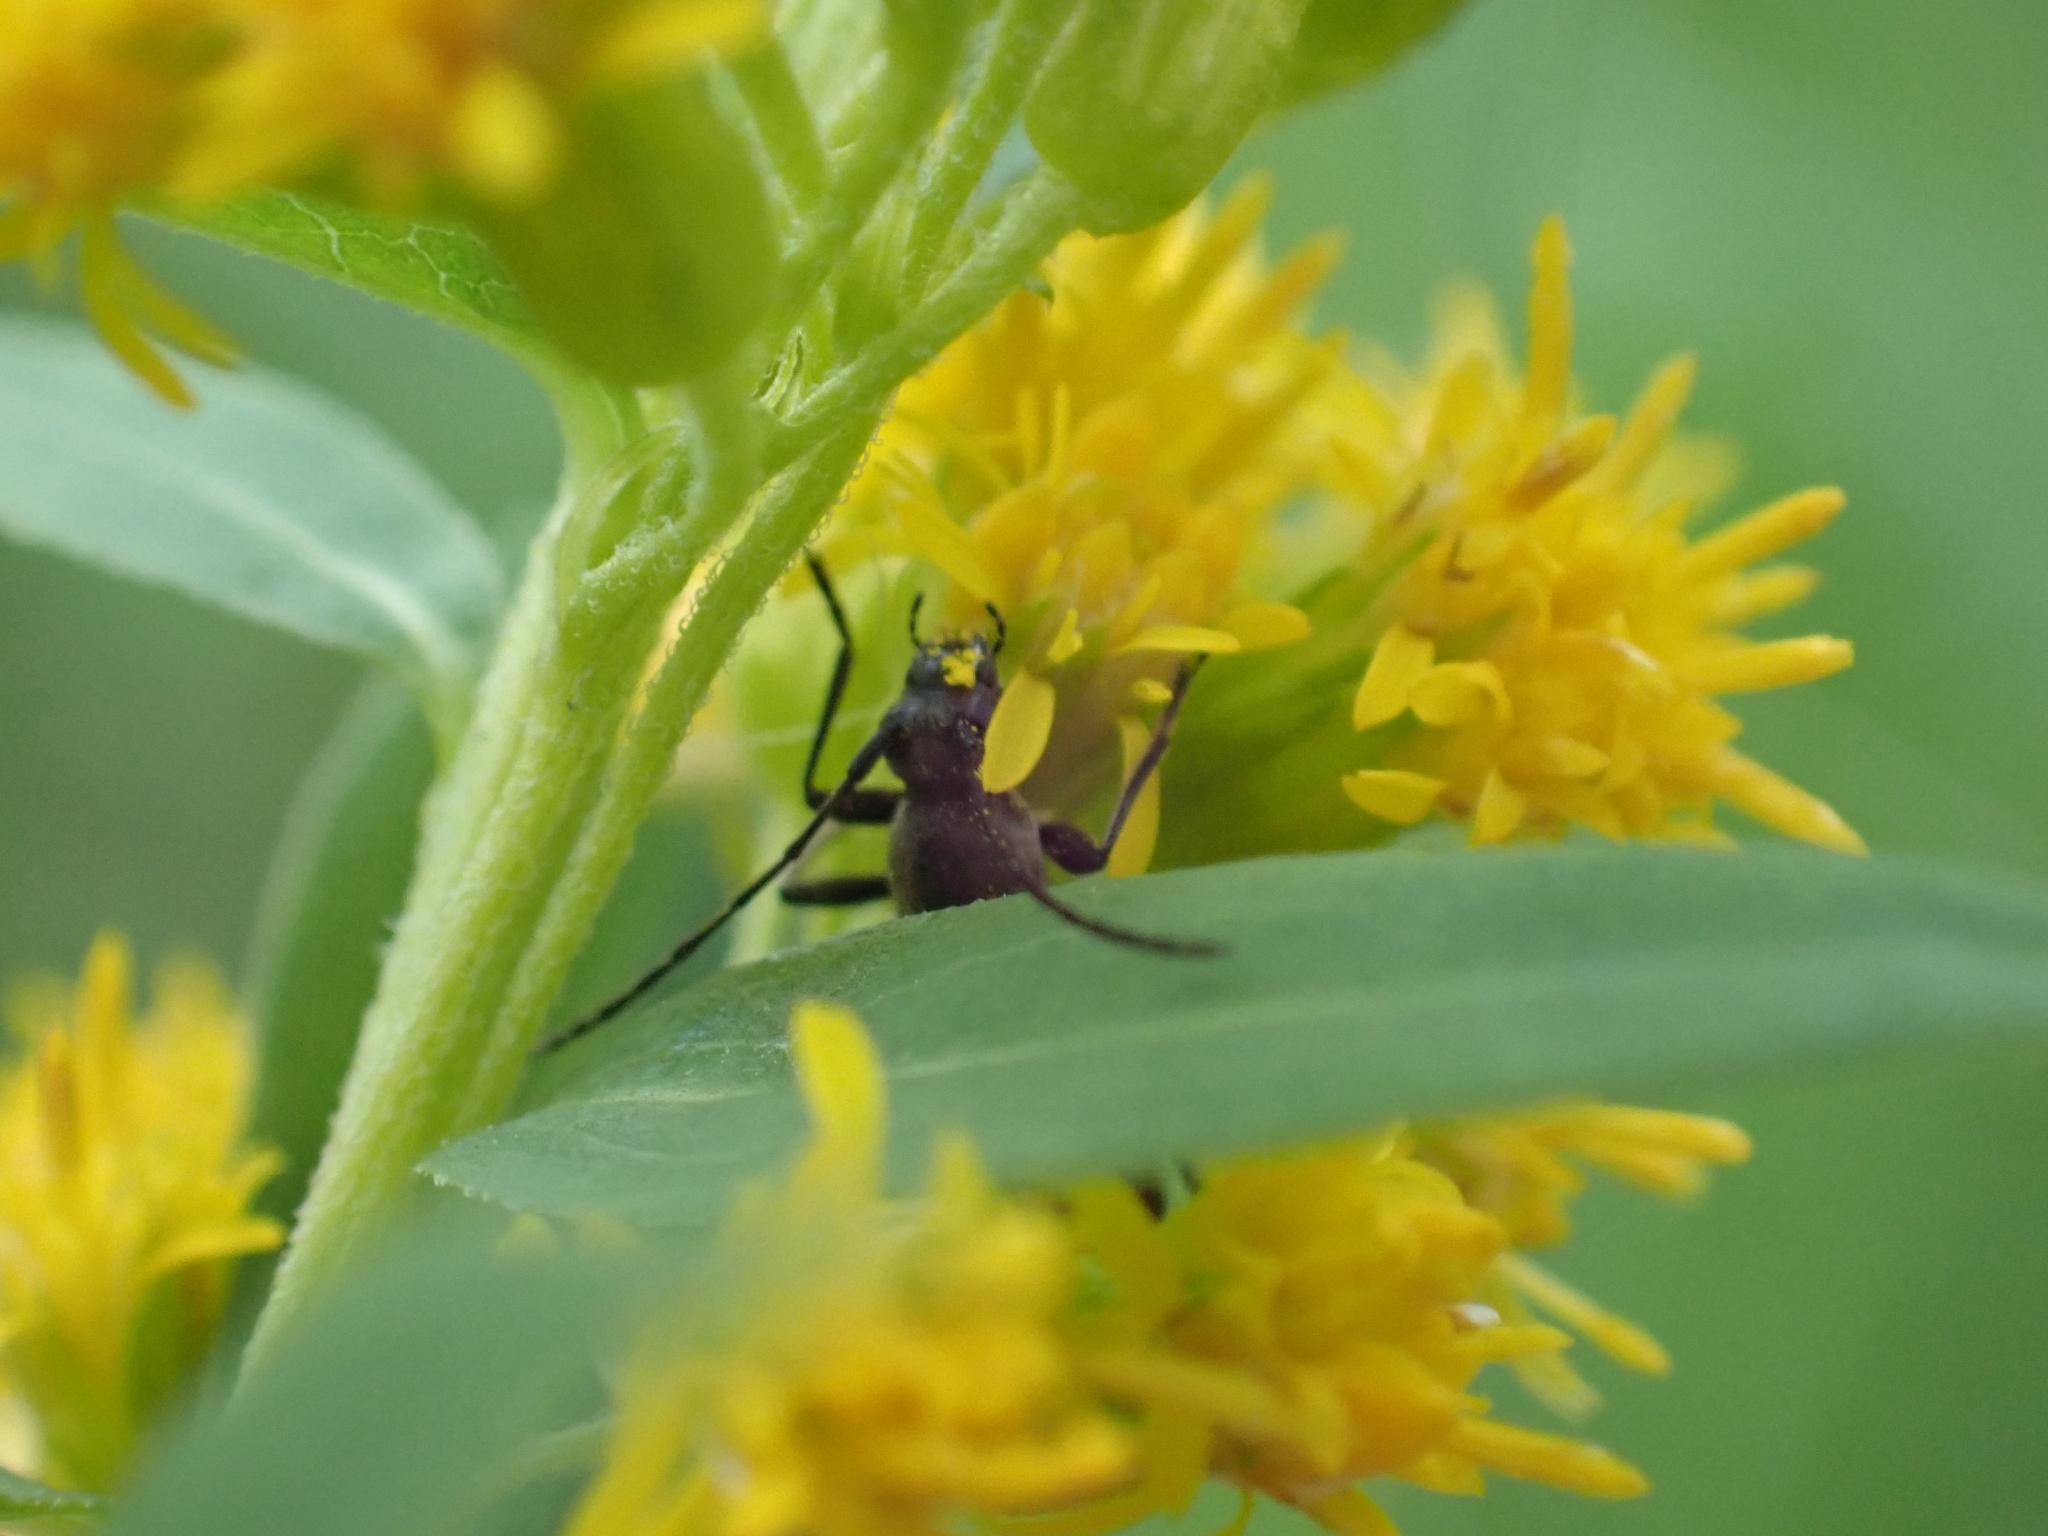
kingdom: Animalia
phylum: Arthropoda
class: Insecta
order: Coleoptera
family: Cerambycidae
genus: Grammoptera
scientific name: Grammoptera subargentata
